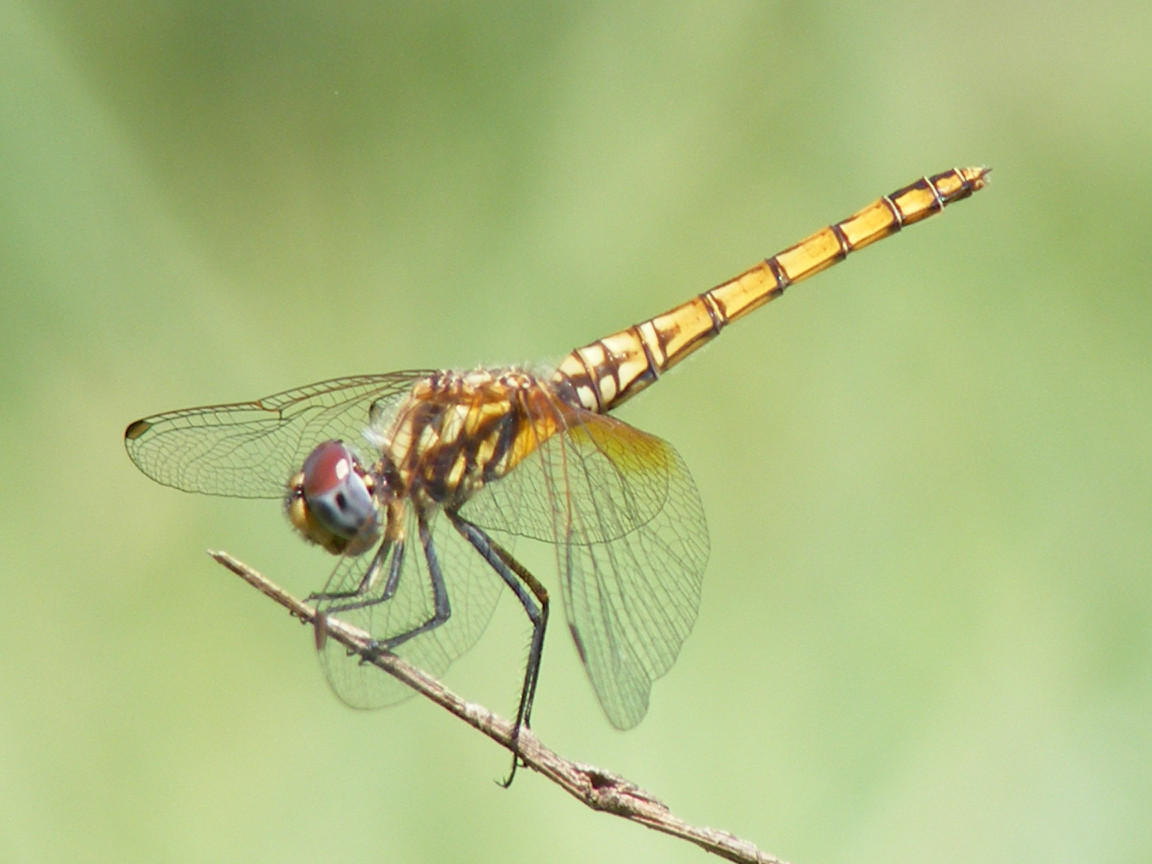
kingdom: Animalia
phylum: Arthropoda
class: Insecta
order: Odonata
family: Libellulidae
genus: Trithemis
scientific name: Trithemis annulata
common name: Violet dropwing
